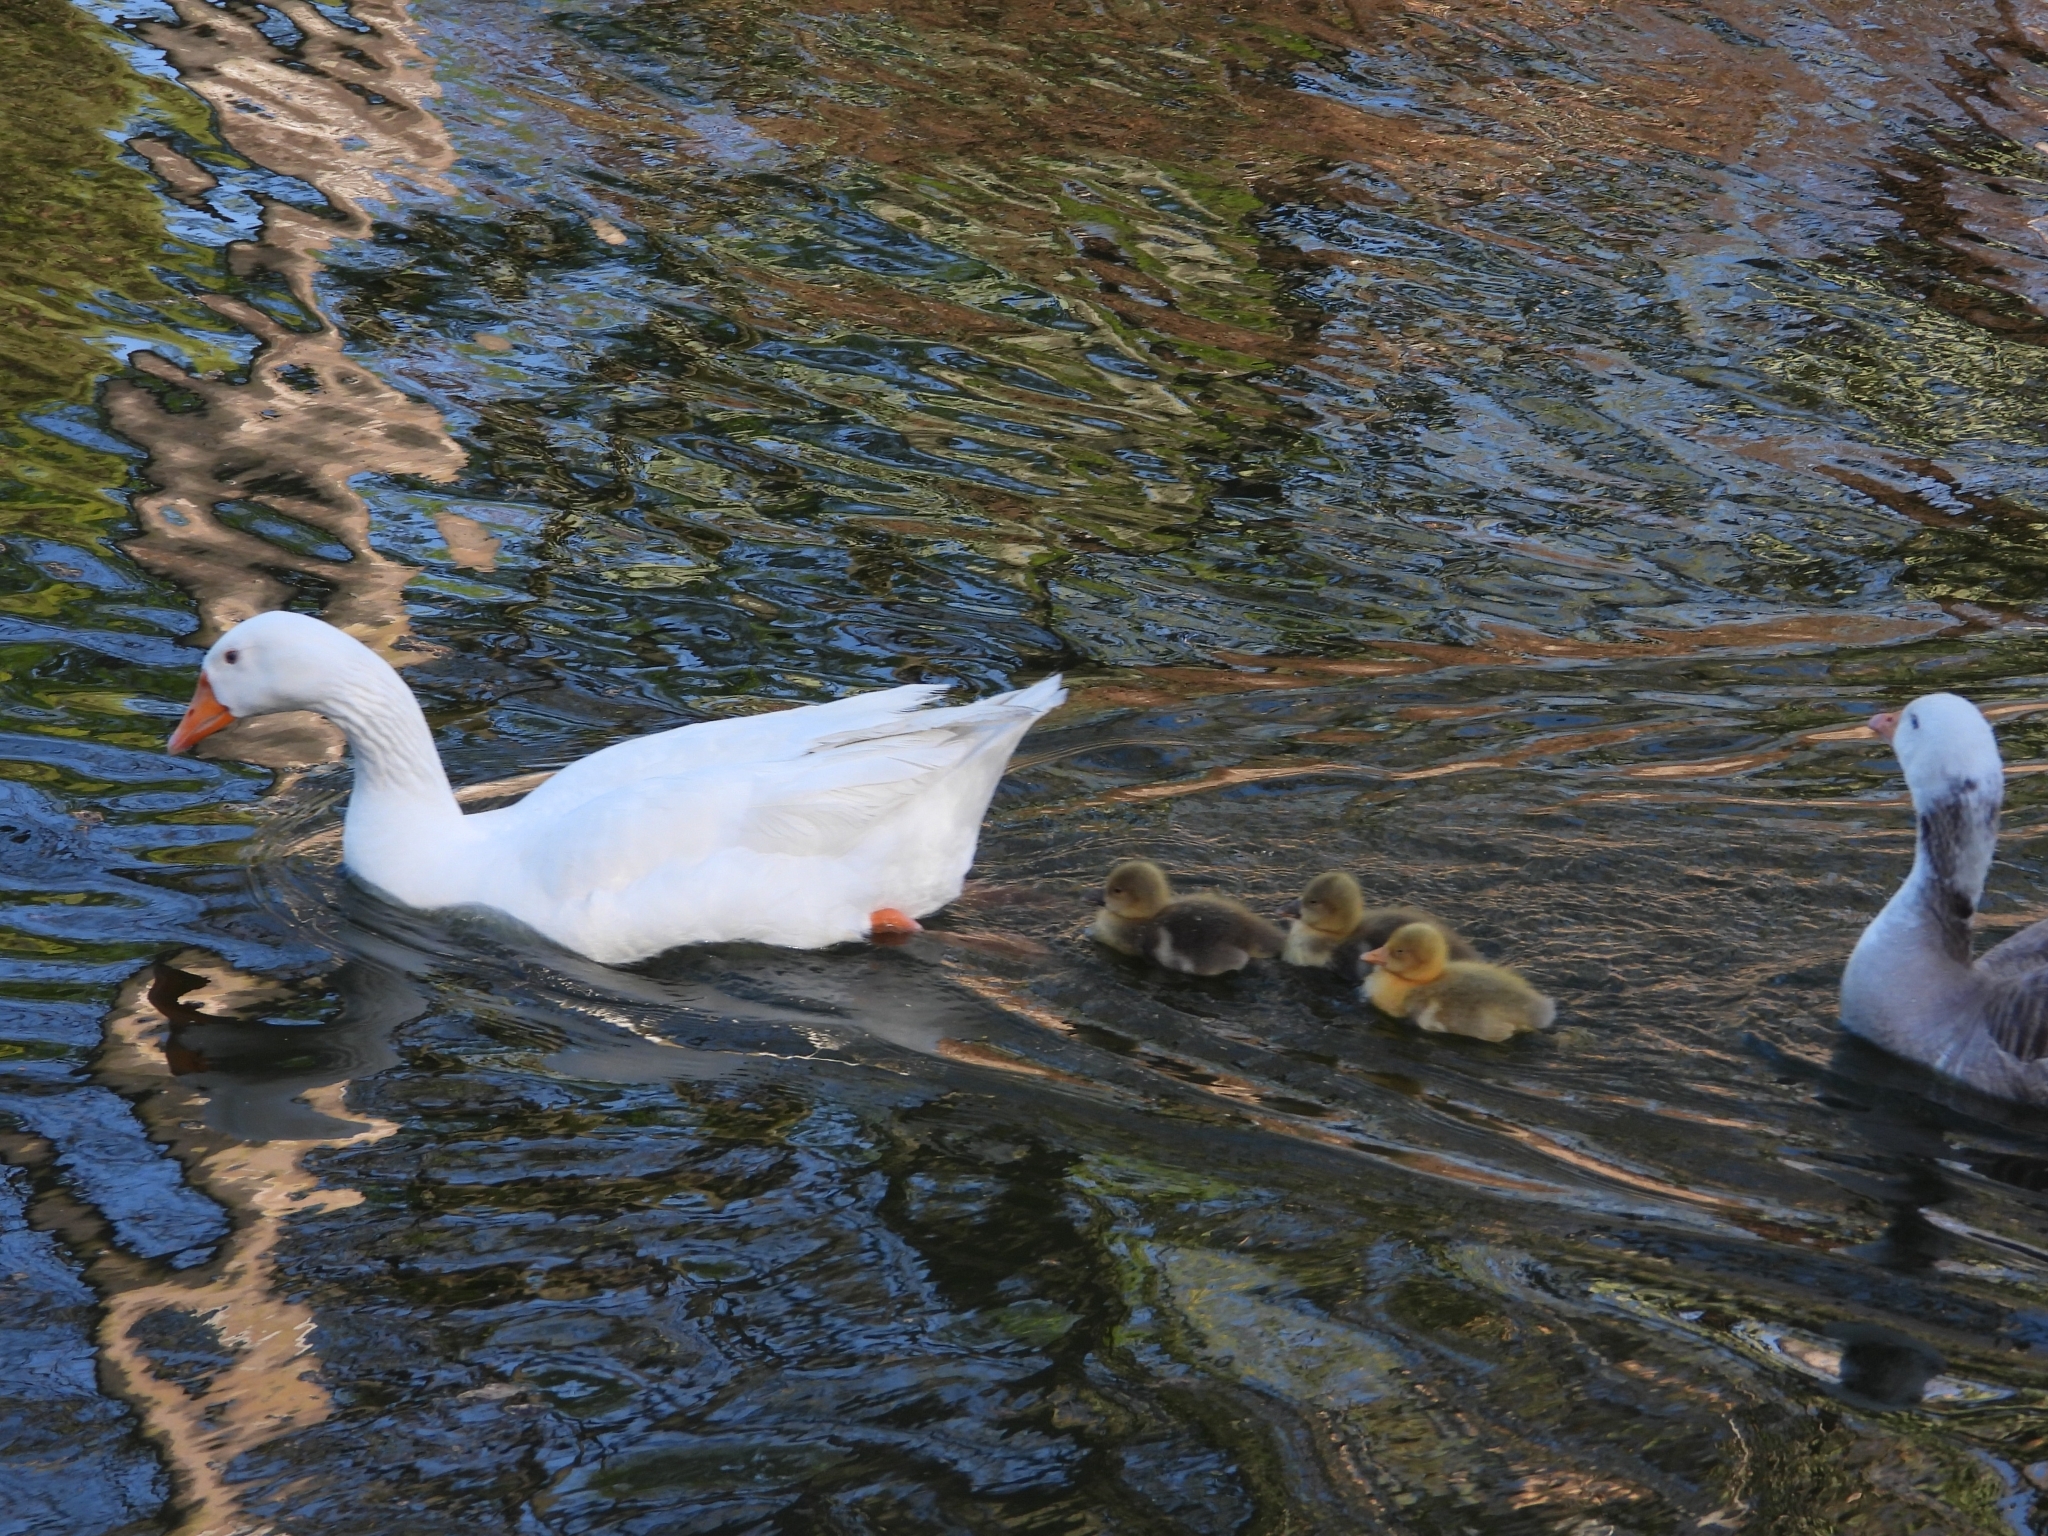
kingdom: Animalia
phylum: Chordata
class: Aves
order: Anseriformes
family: Anatidae
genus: Anser
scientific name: Anser anser
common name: Greylag goose
